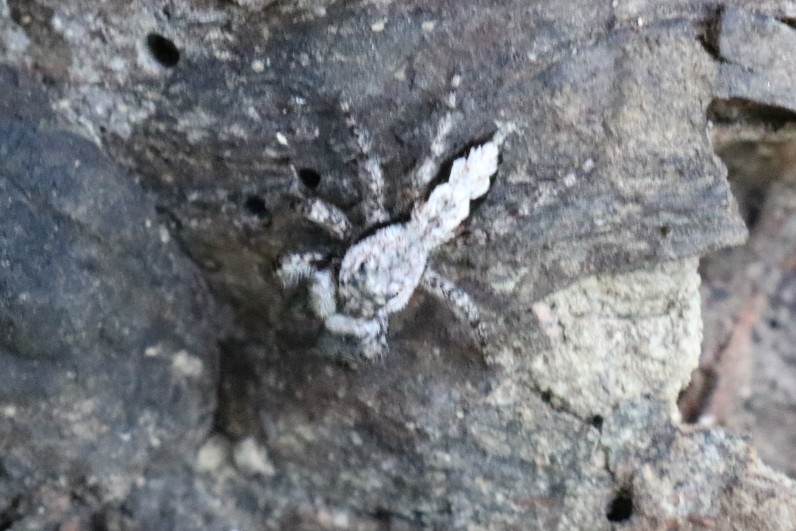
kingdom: Animalia
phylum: Arthropoda
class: Arachnida
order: Araneae
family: Salticidae
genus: Platycryptus
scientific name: Platycryptus undatus
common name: Tan jumping spider
